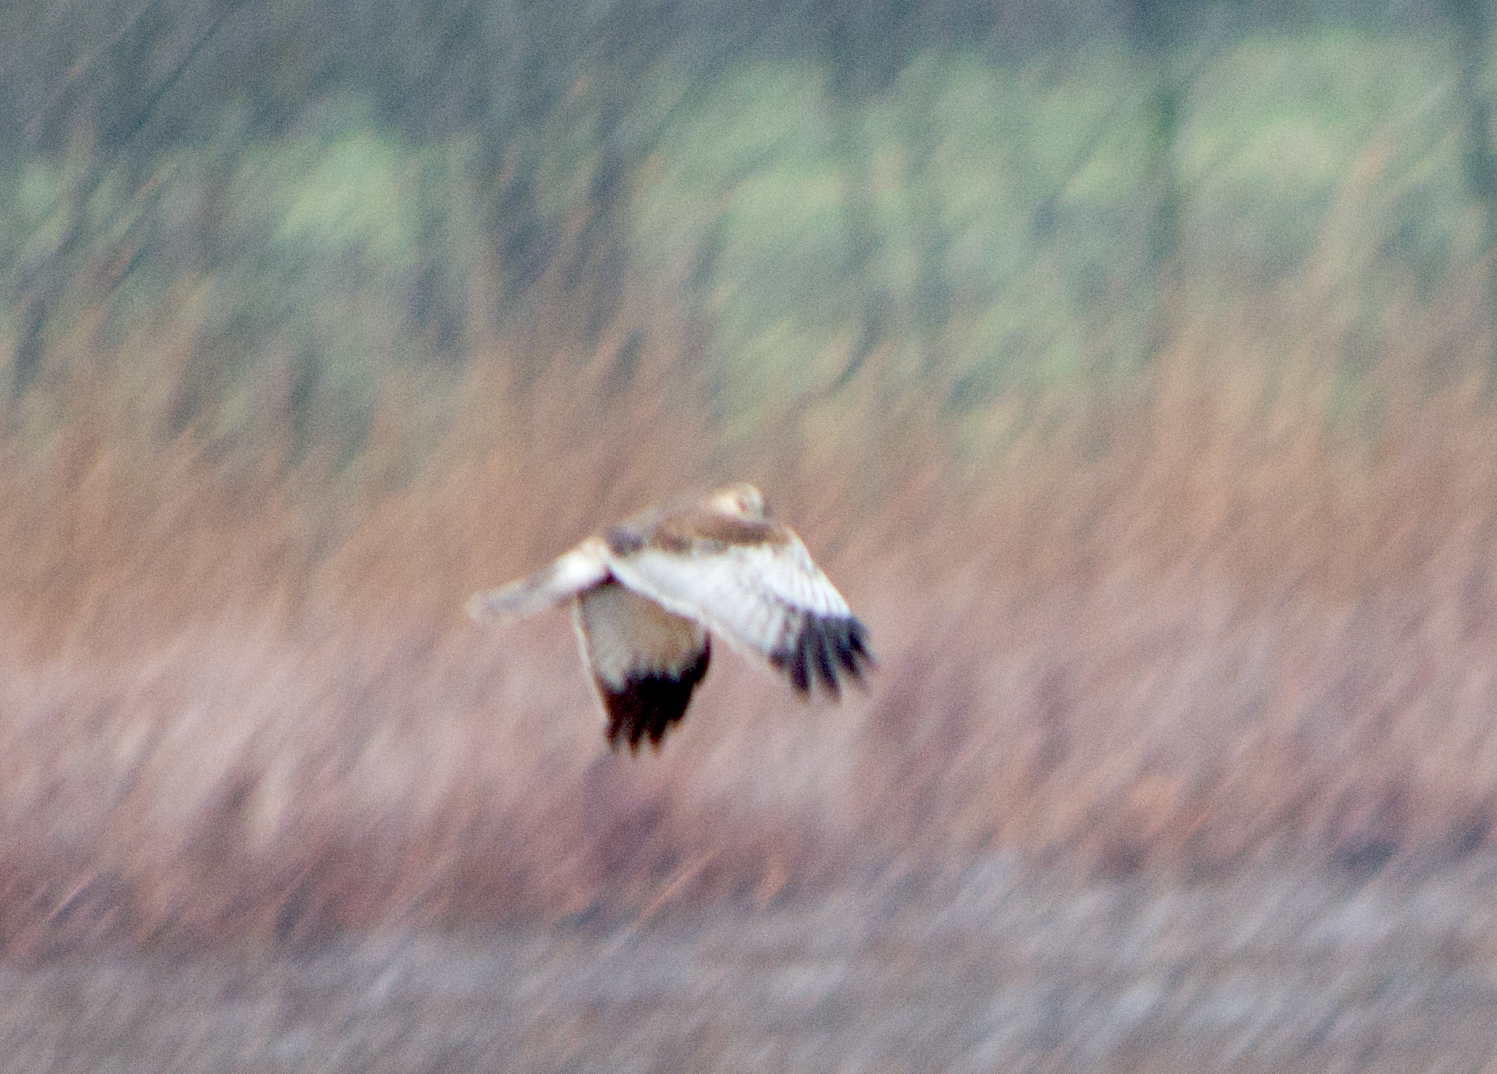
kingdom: Animalia
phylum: Chordata
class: Aves
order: Accipitriformes
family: Accipitridae
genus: Circus
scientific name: Circus aeruginosus
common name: Western marsh harrier
